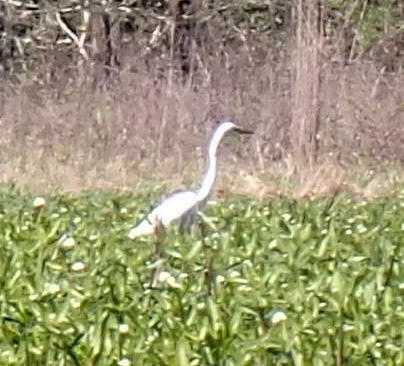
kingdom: Animalia
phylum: Chordata
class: Aves
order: Pelecaniformes
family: Ardeidae
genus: Ardea
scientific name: Ardea alba
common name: Great egret
